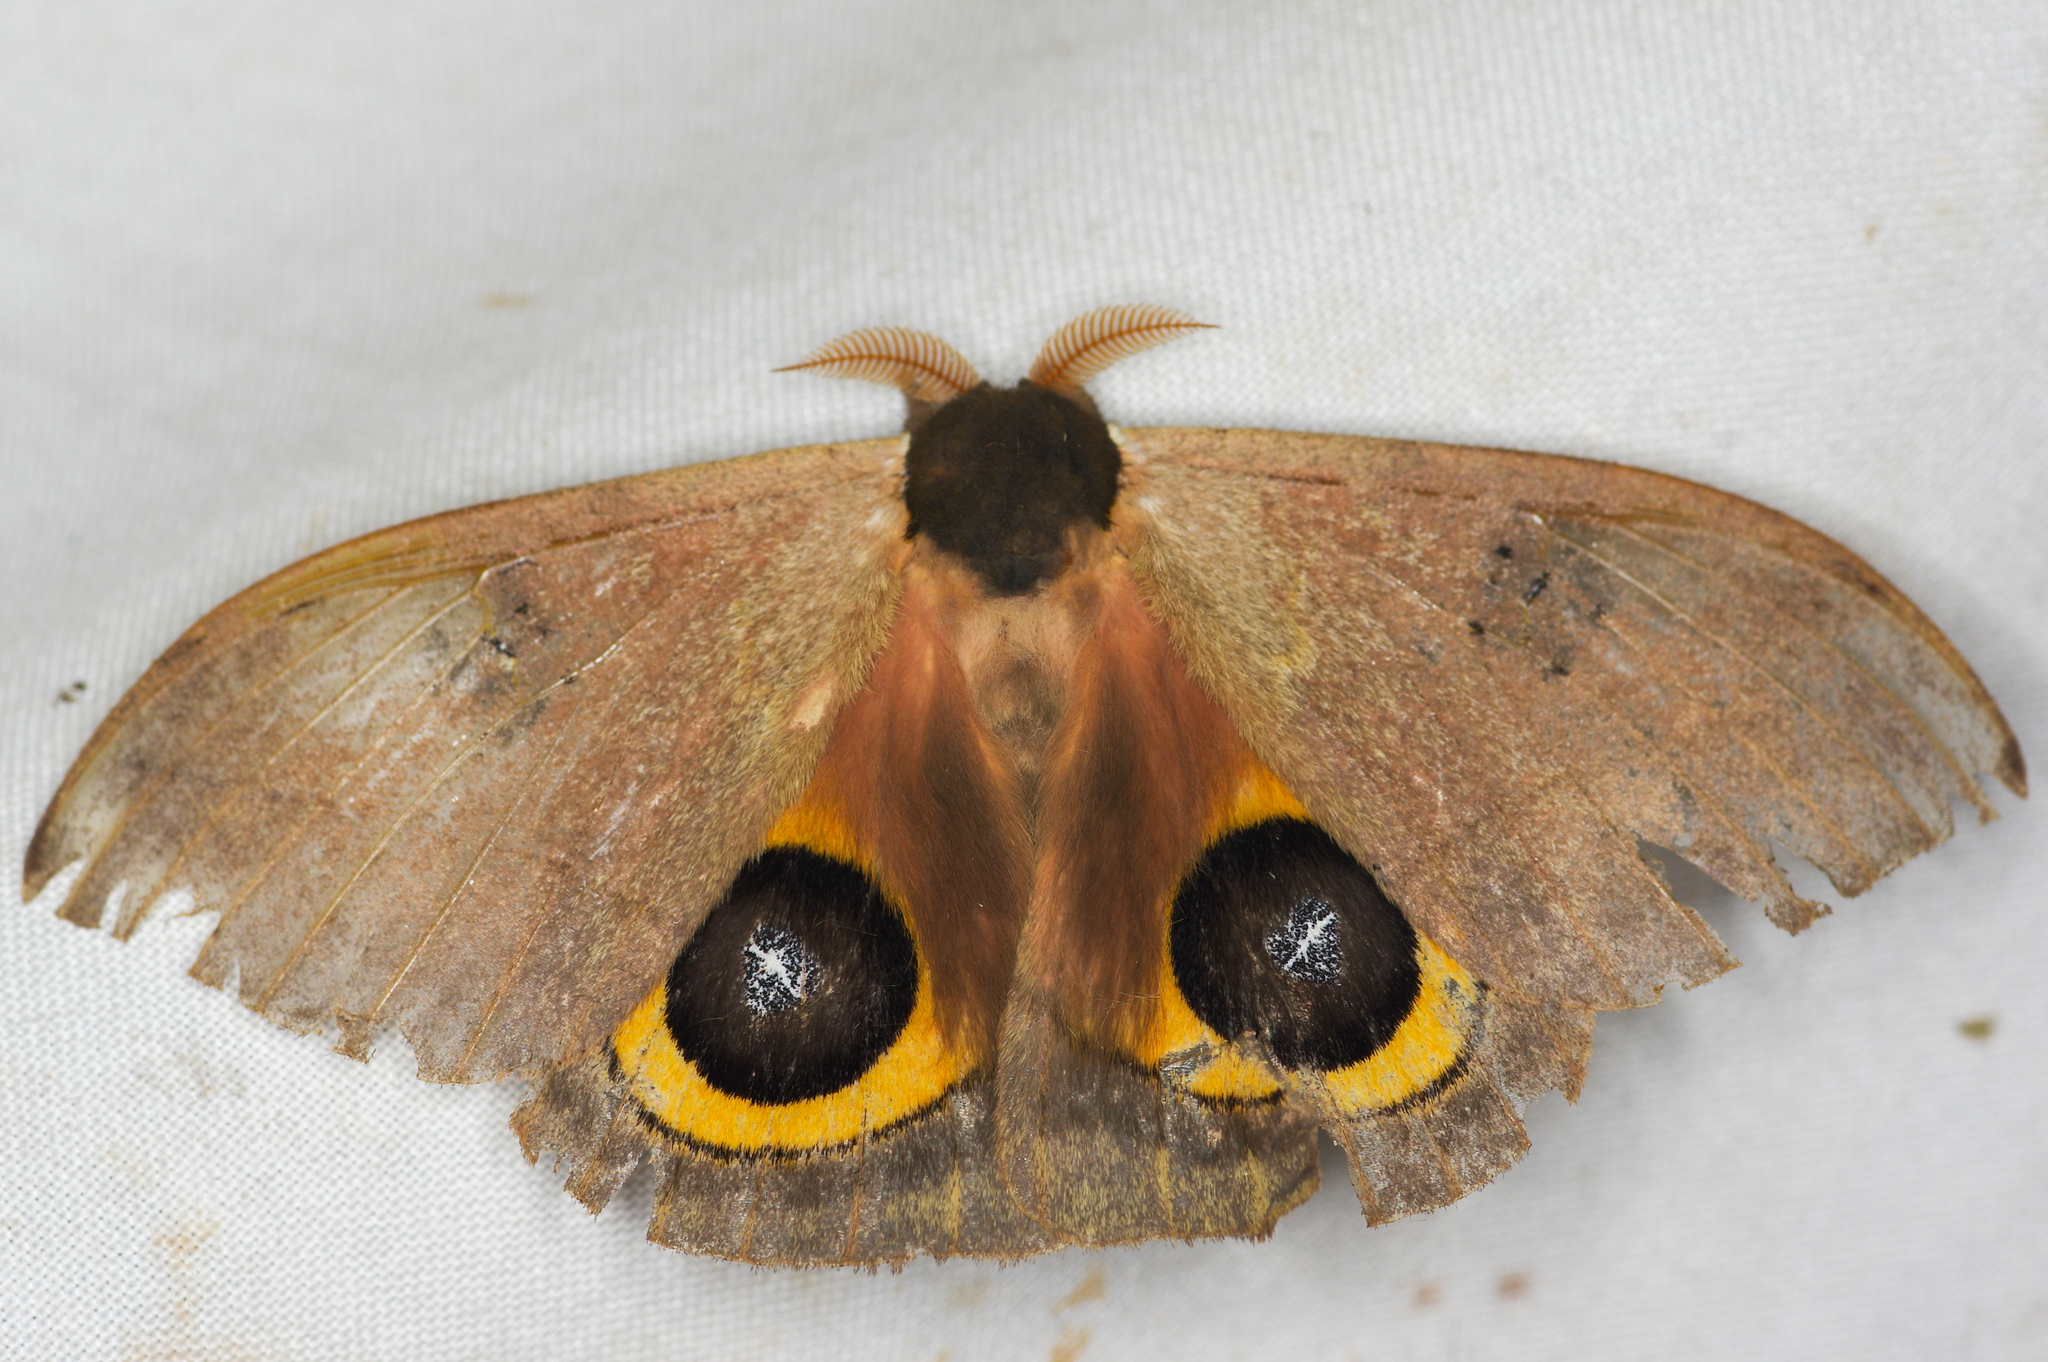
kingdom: Animalia
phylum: Arthropoda
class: Insecta
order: Lepidoptera
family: Saturniidae
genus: Automeris
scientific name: Automeris orestes
